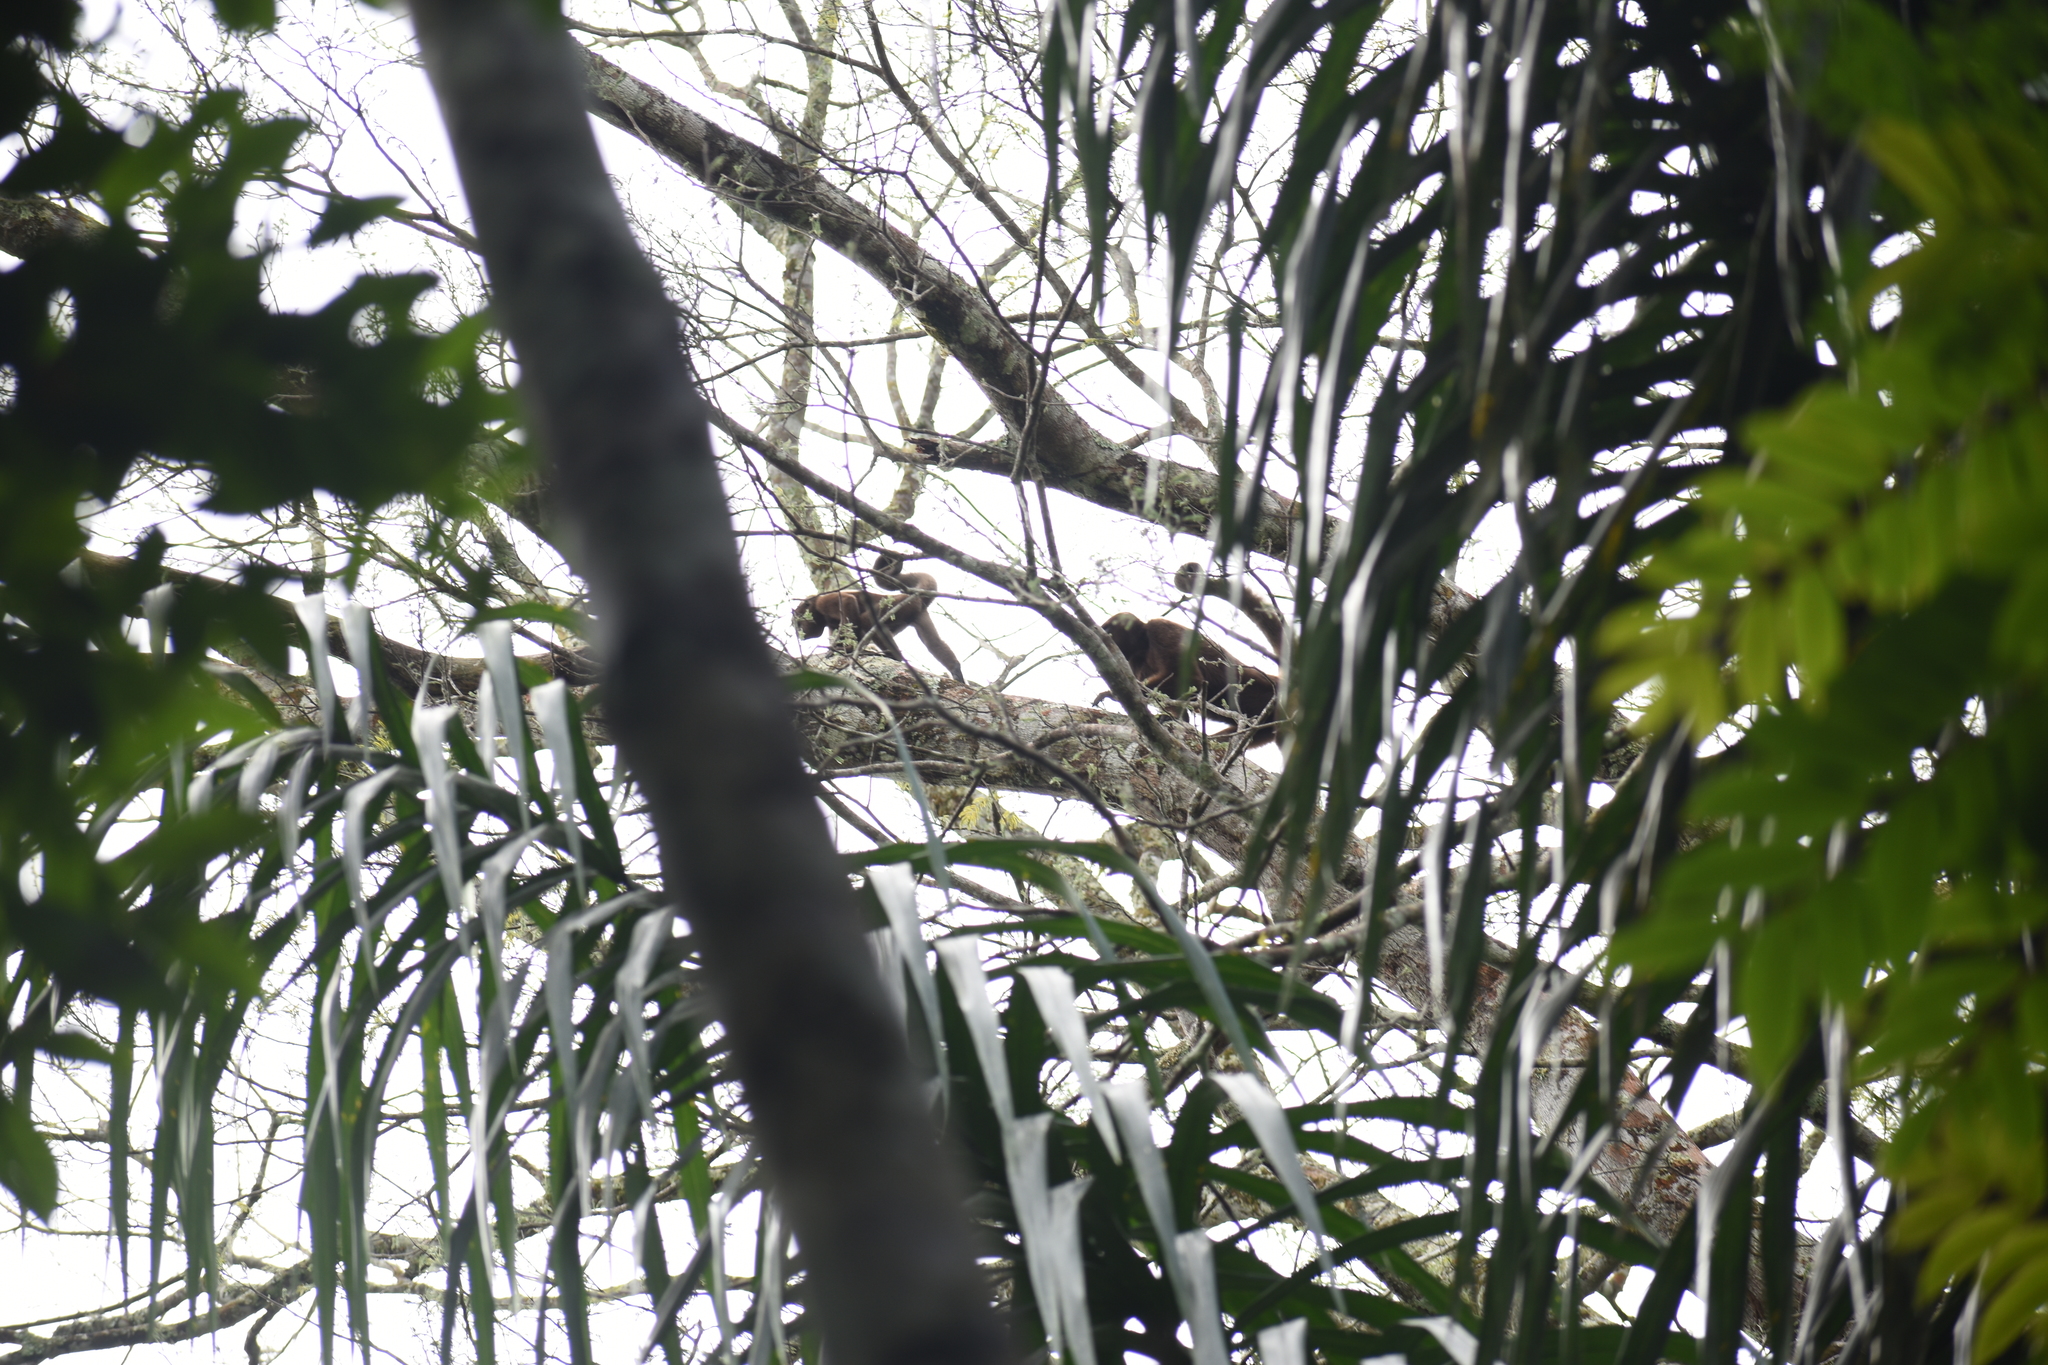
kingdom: Animalia
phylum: Chordata
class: Mammalia
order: Primates
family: Atelidae
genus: Lagothrix
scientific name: Lagothrix lagothricha
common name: Brown woolly monkey
